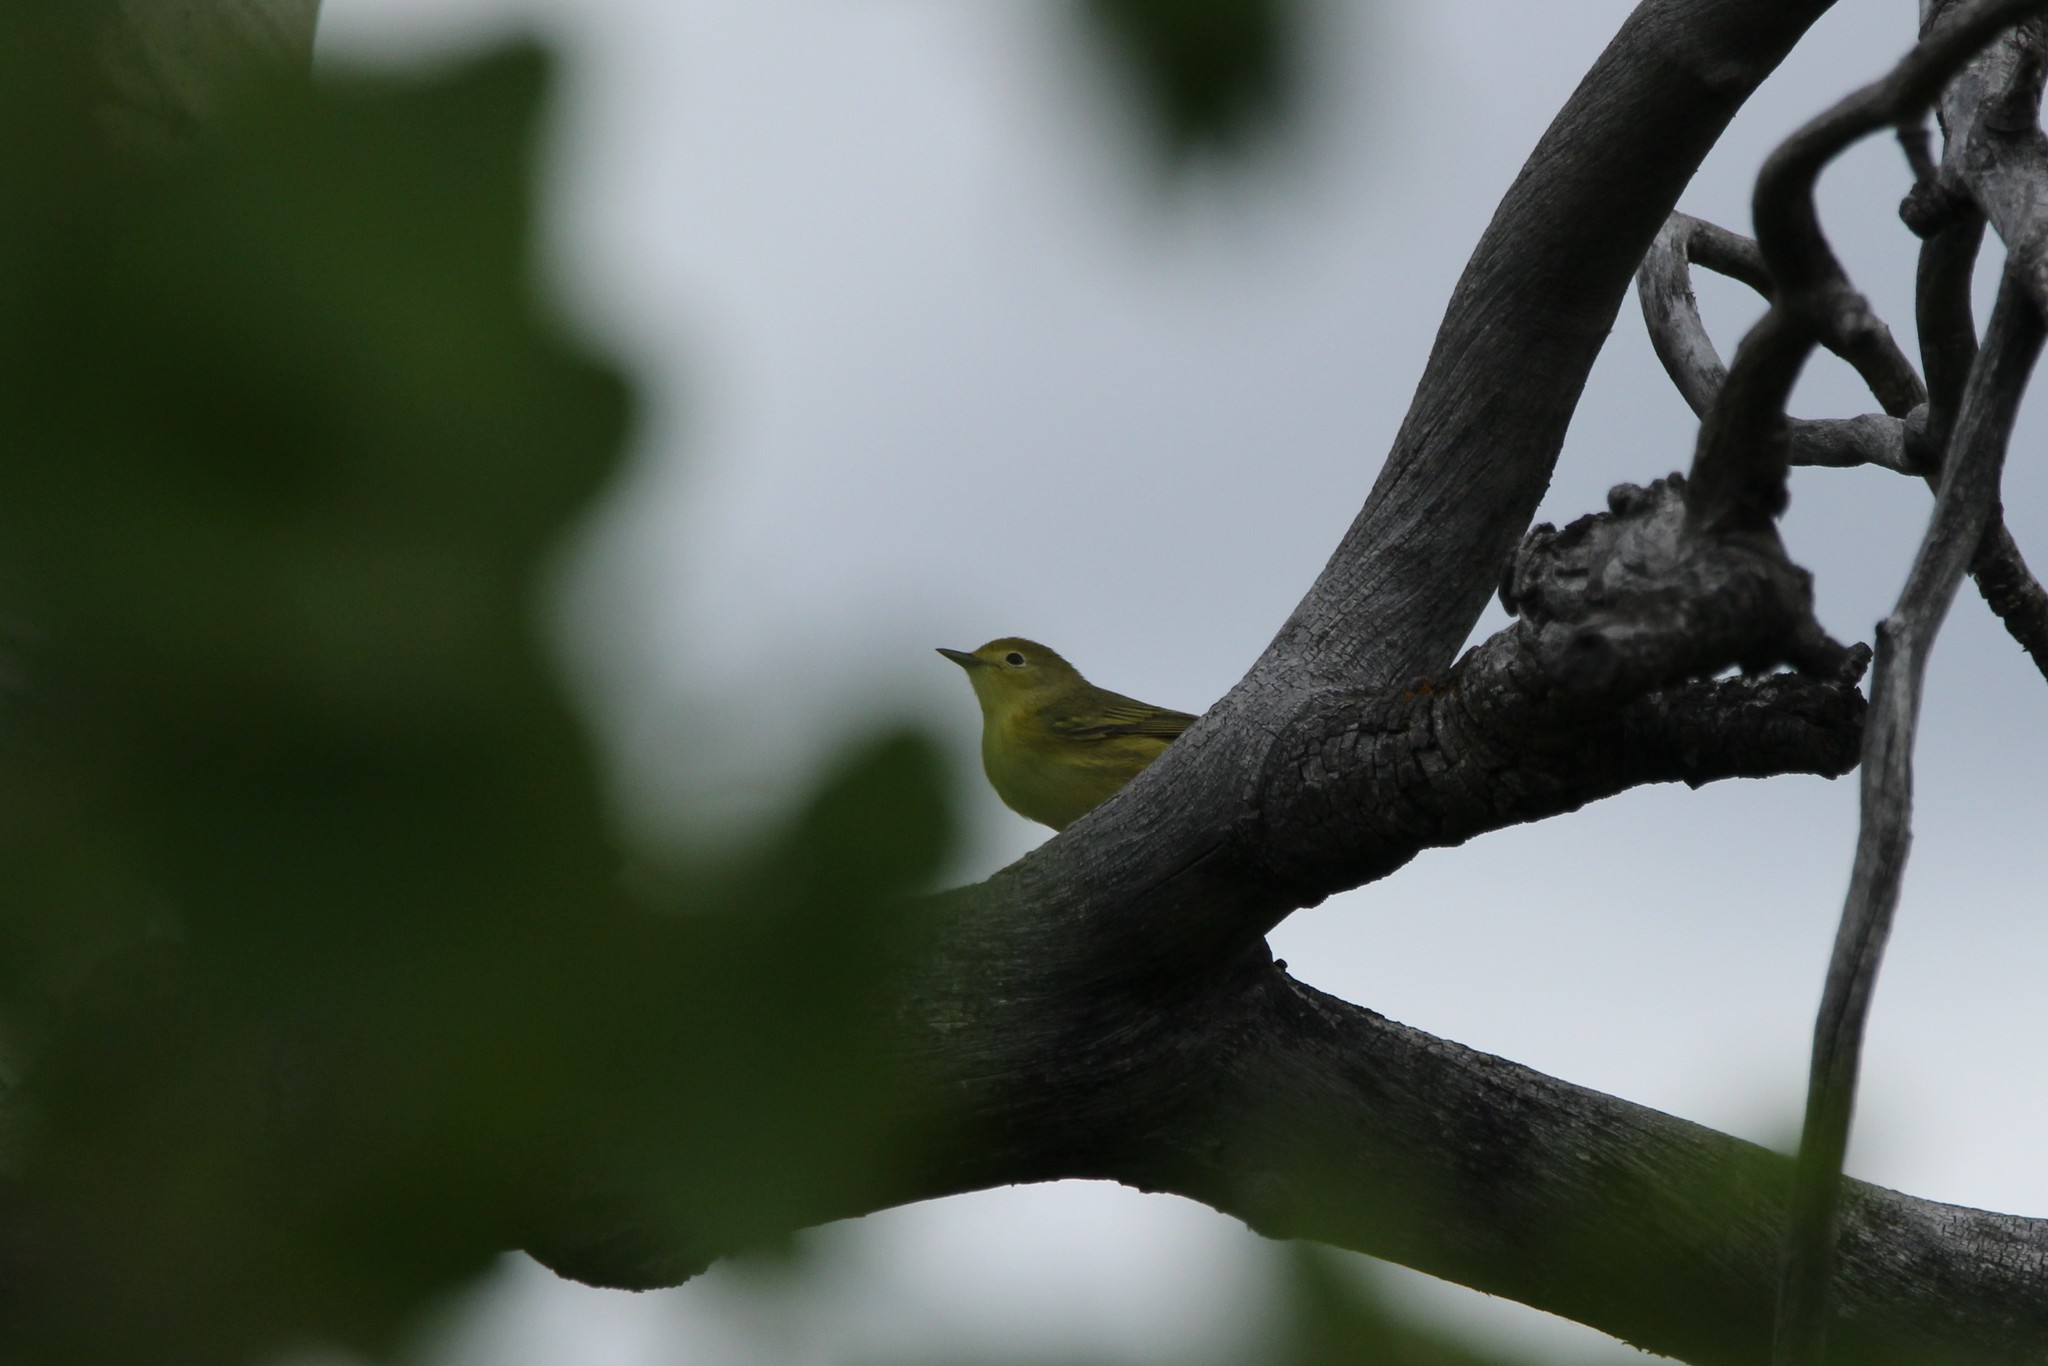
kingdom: Animalia
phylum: Chordata
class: Aves
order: Passeriformes
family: Parulidae
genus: Setophaga
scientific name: Setophaga petechia
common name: Yellow warbler
